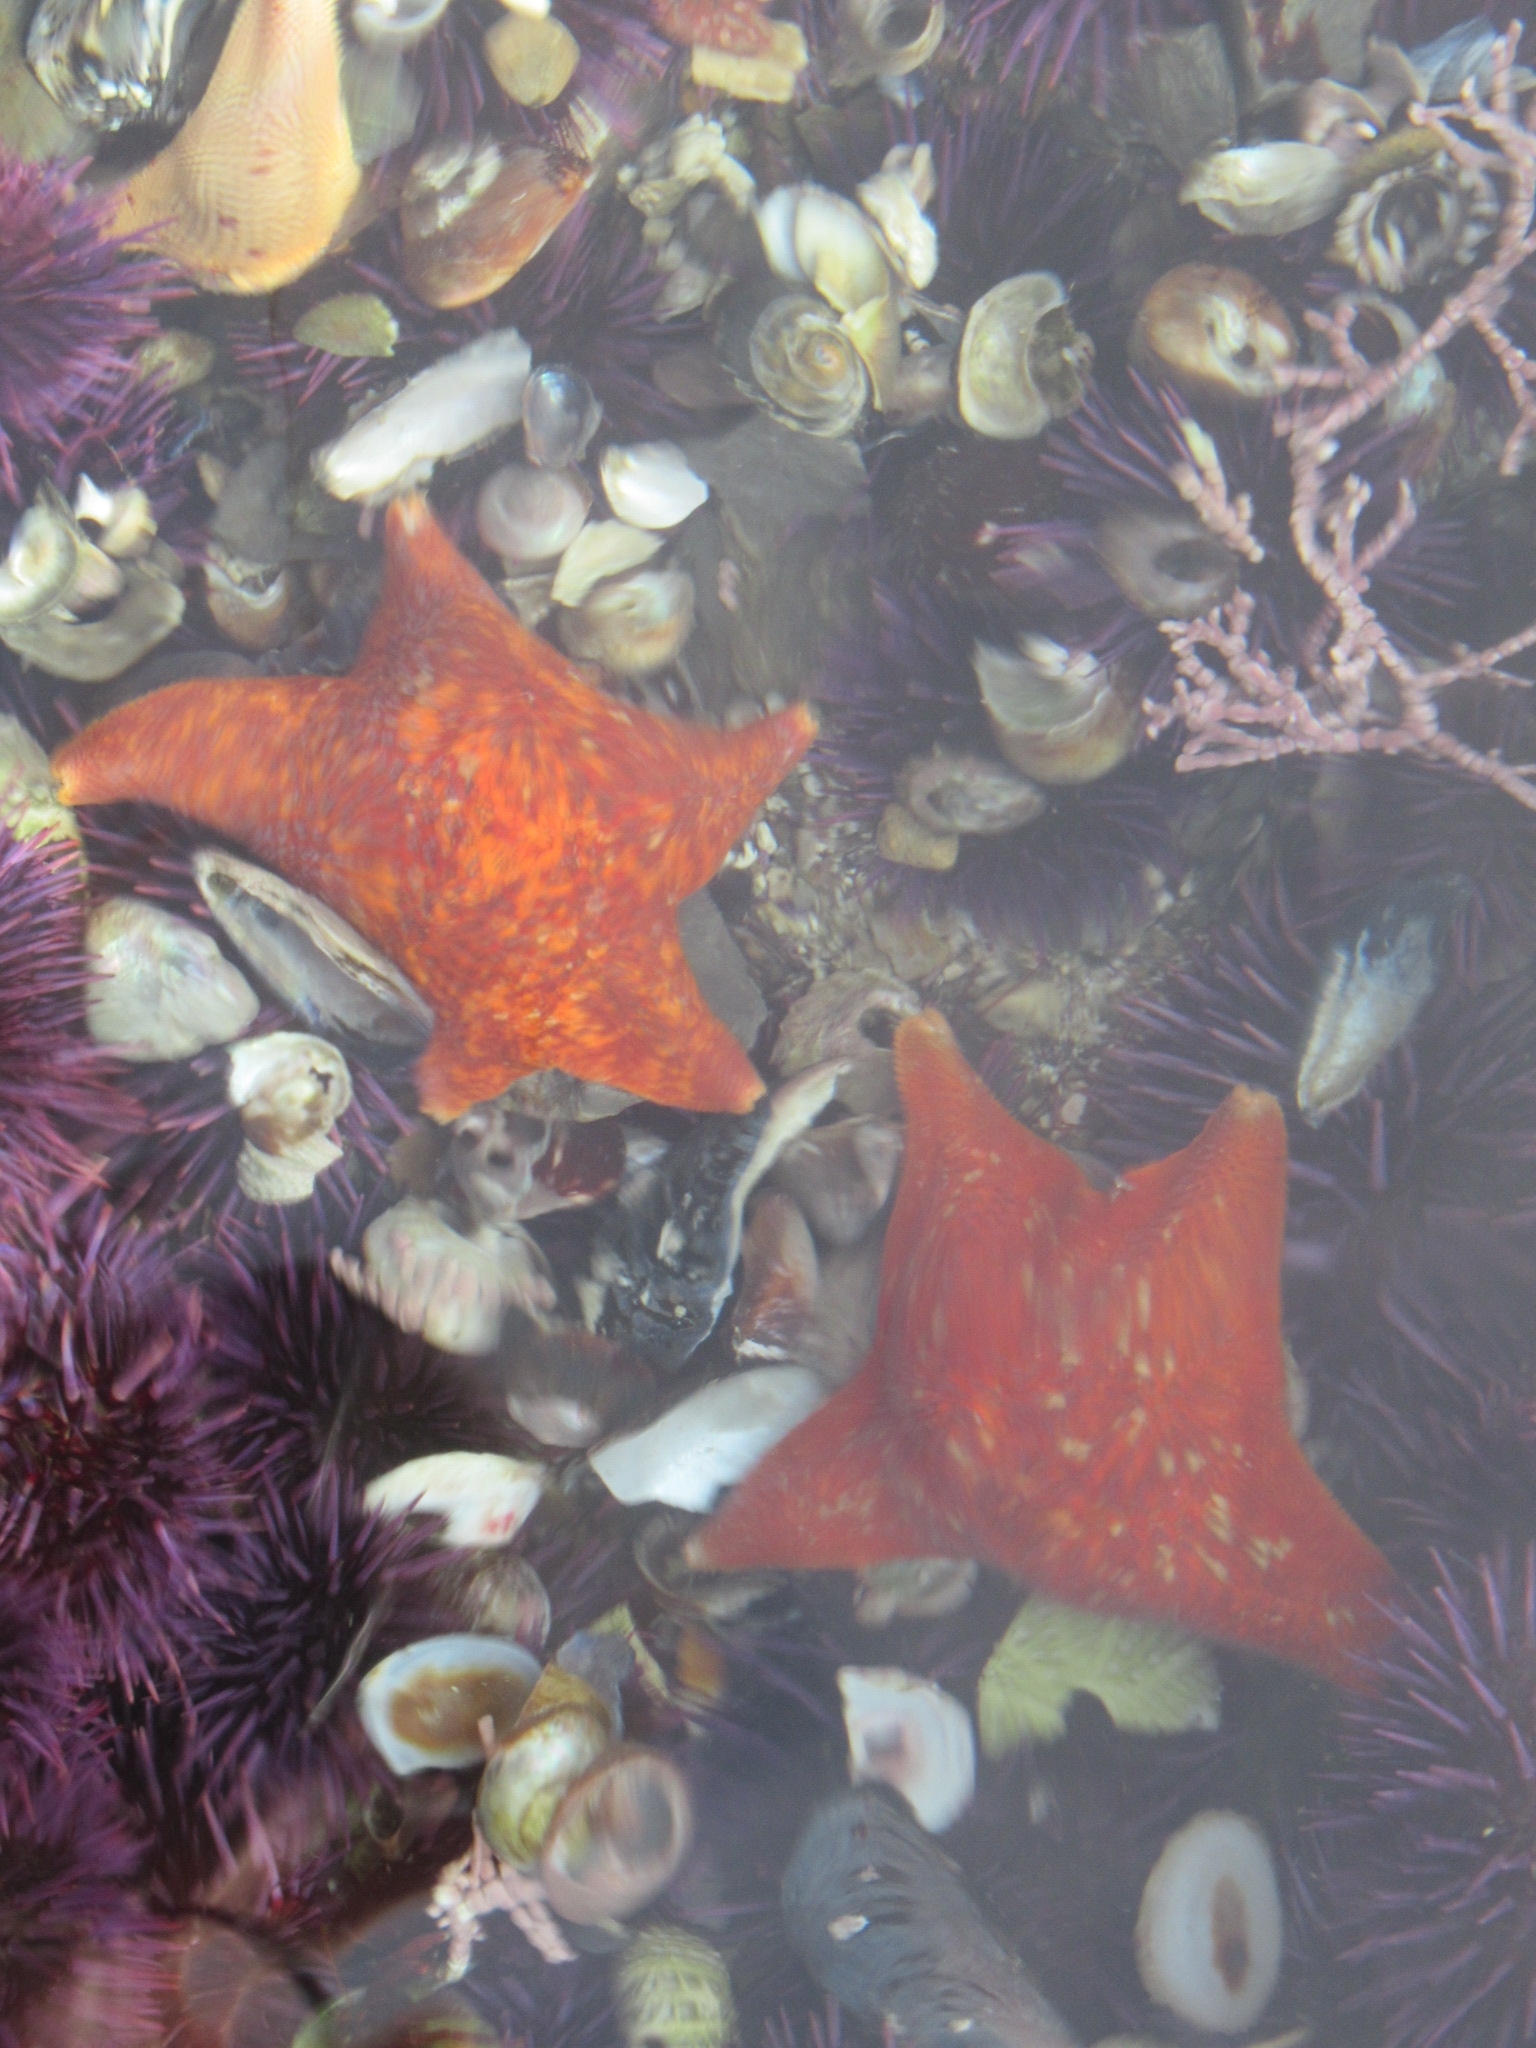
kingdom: Animalia
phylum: Echinodermata
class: Asteroidea
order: Valvatida
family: Asterinidae
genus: Patiria
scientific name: Patiria miniata
